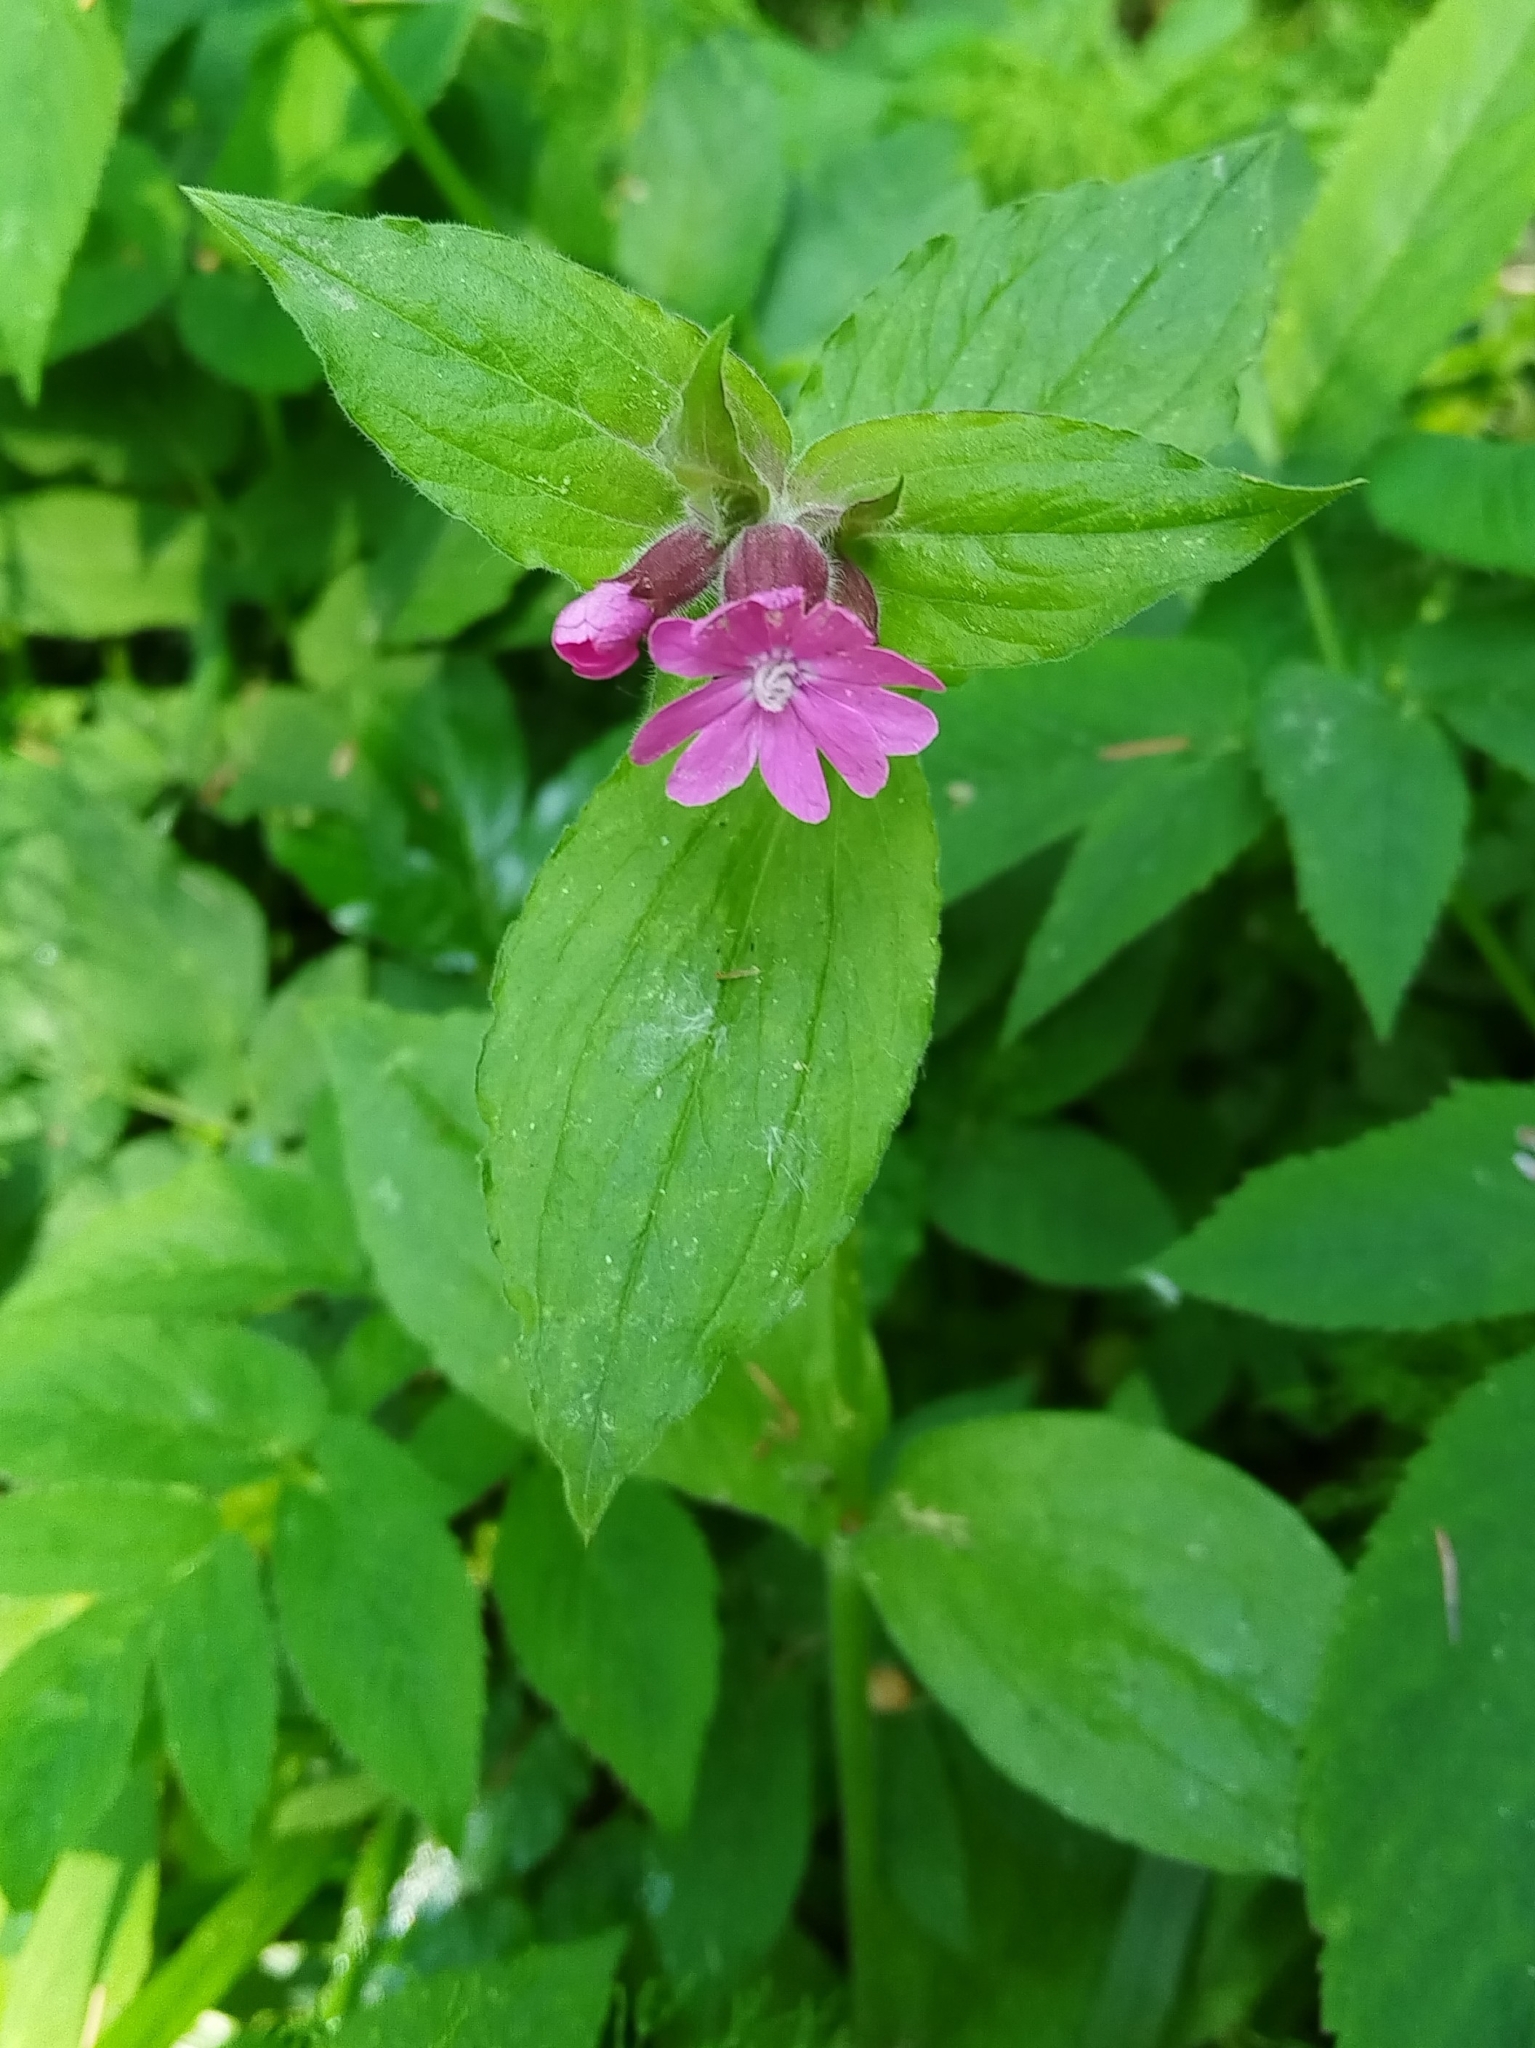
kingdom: Plantae
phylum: Tracheophyta
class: Magnoliopsida
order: Caryophyllales
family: Caryophyllaceae
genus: Silene
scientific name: Silene dioica
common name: Red campion
